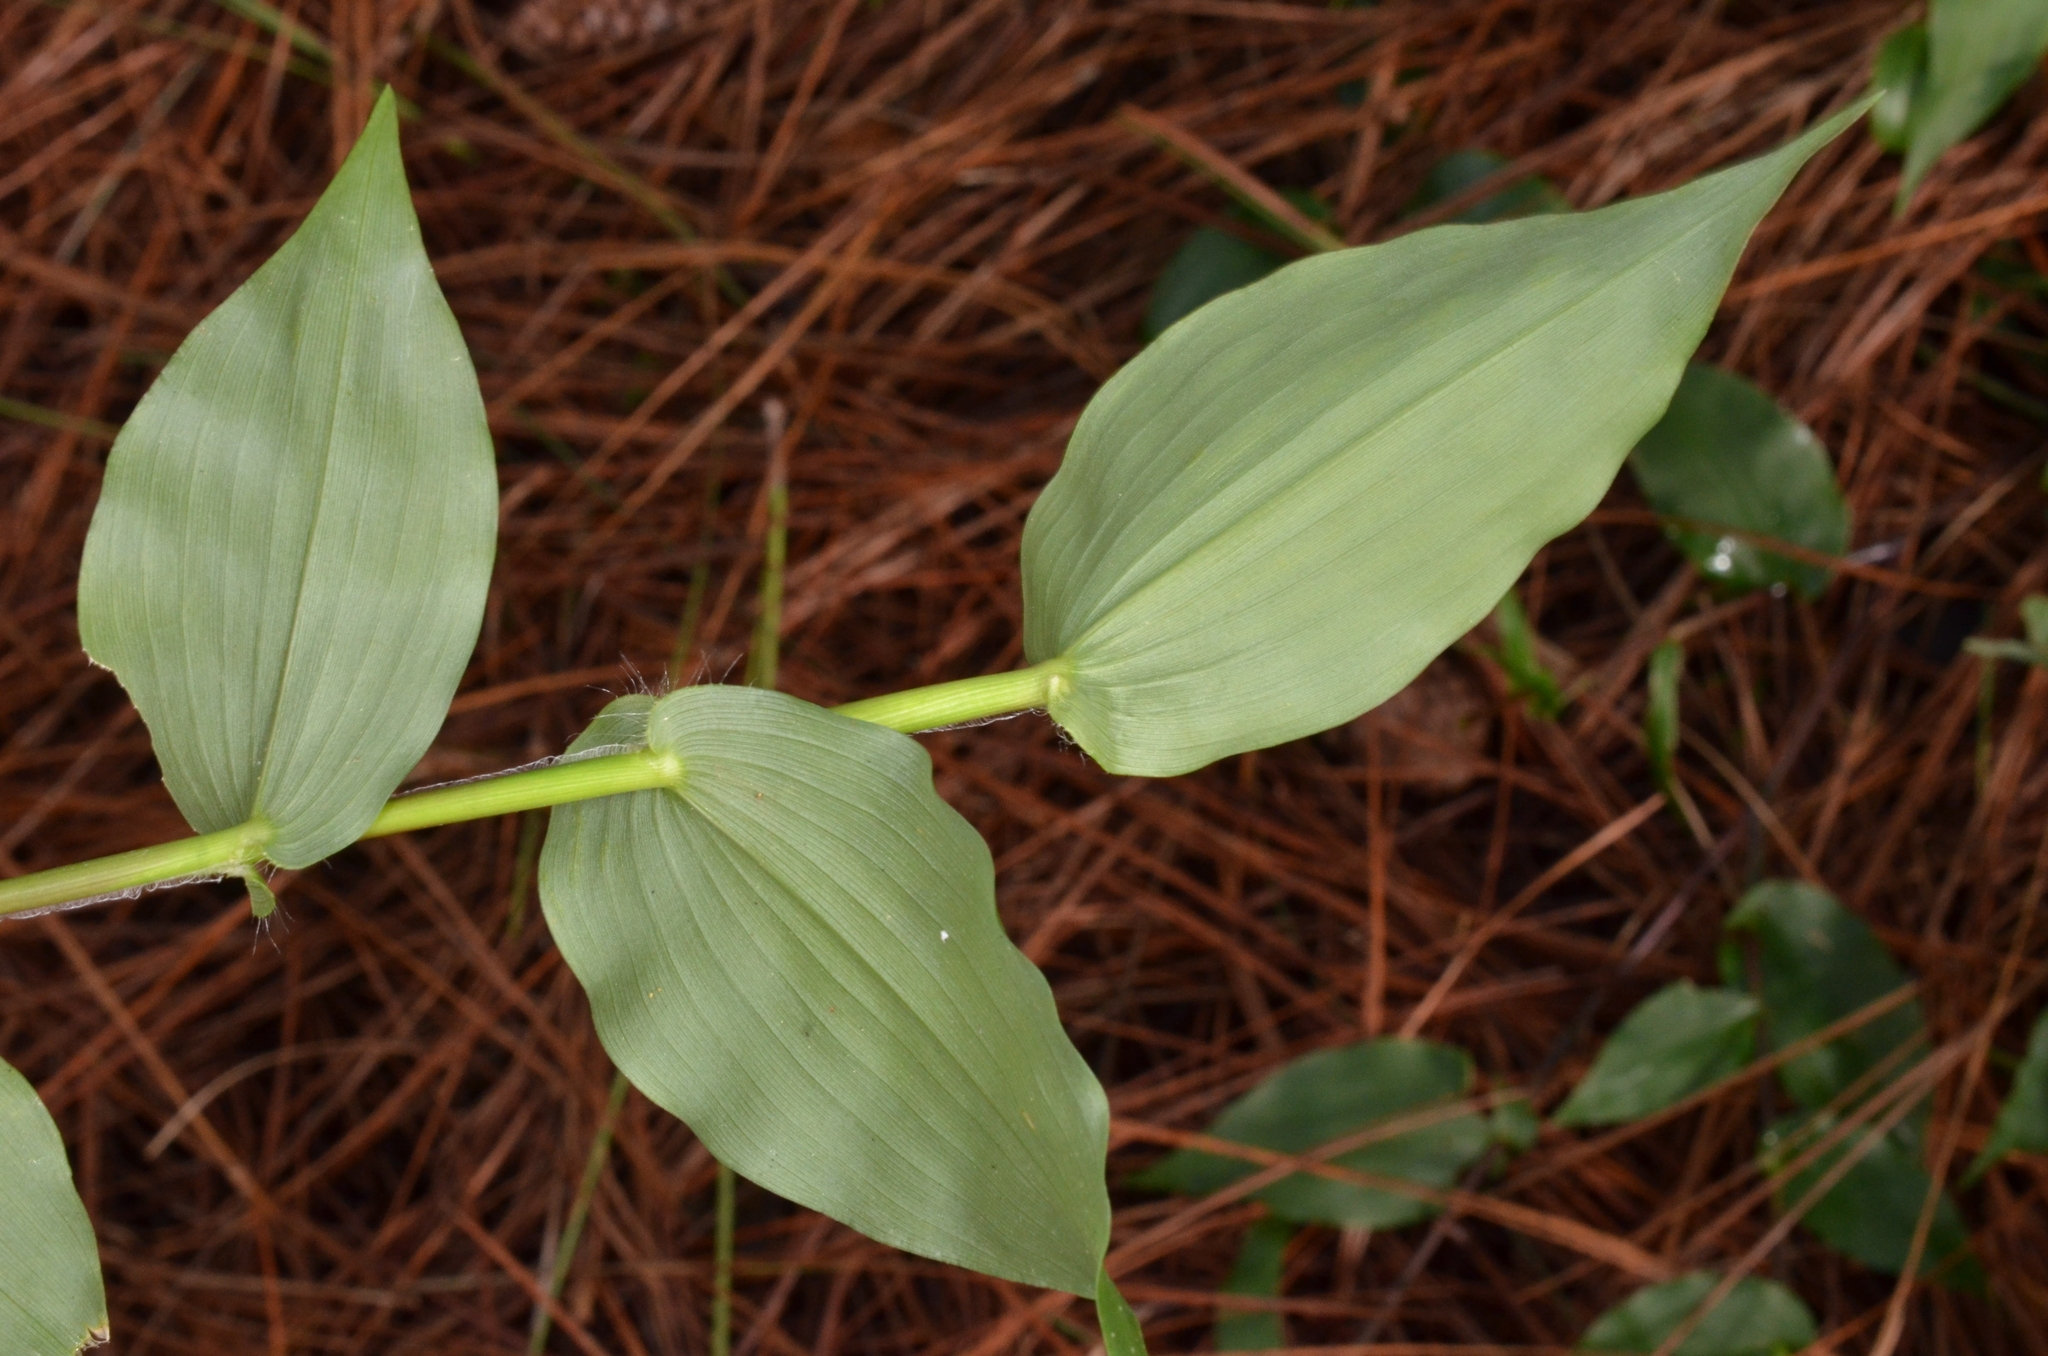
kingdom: Plantae
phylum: Tracheophyta
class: Liliopsida
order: Poales
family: Poaceae
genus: Panicum
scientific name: Panicum brevifolium
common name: Shortleaf panic grass
